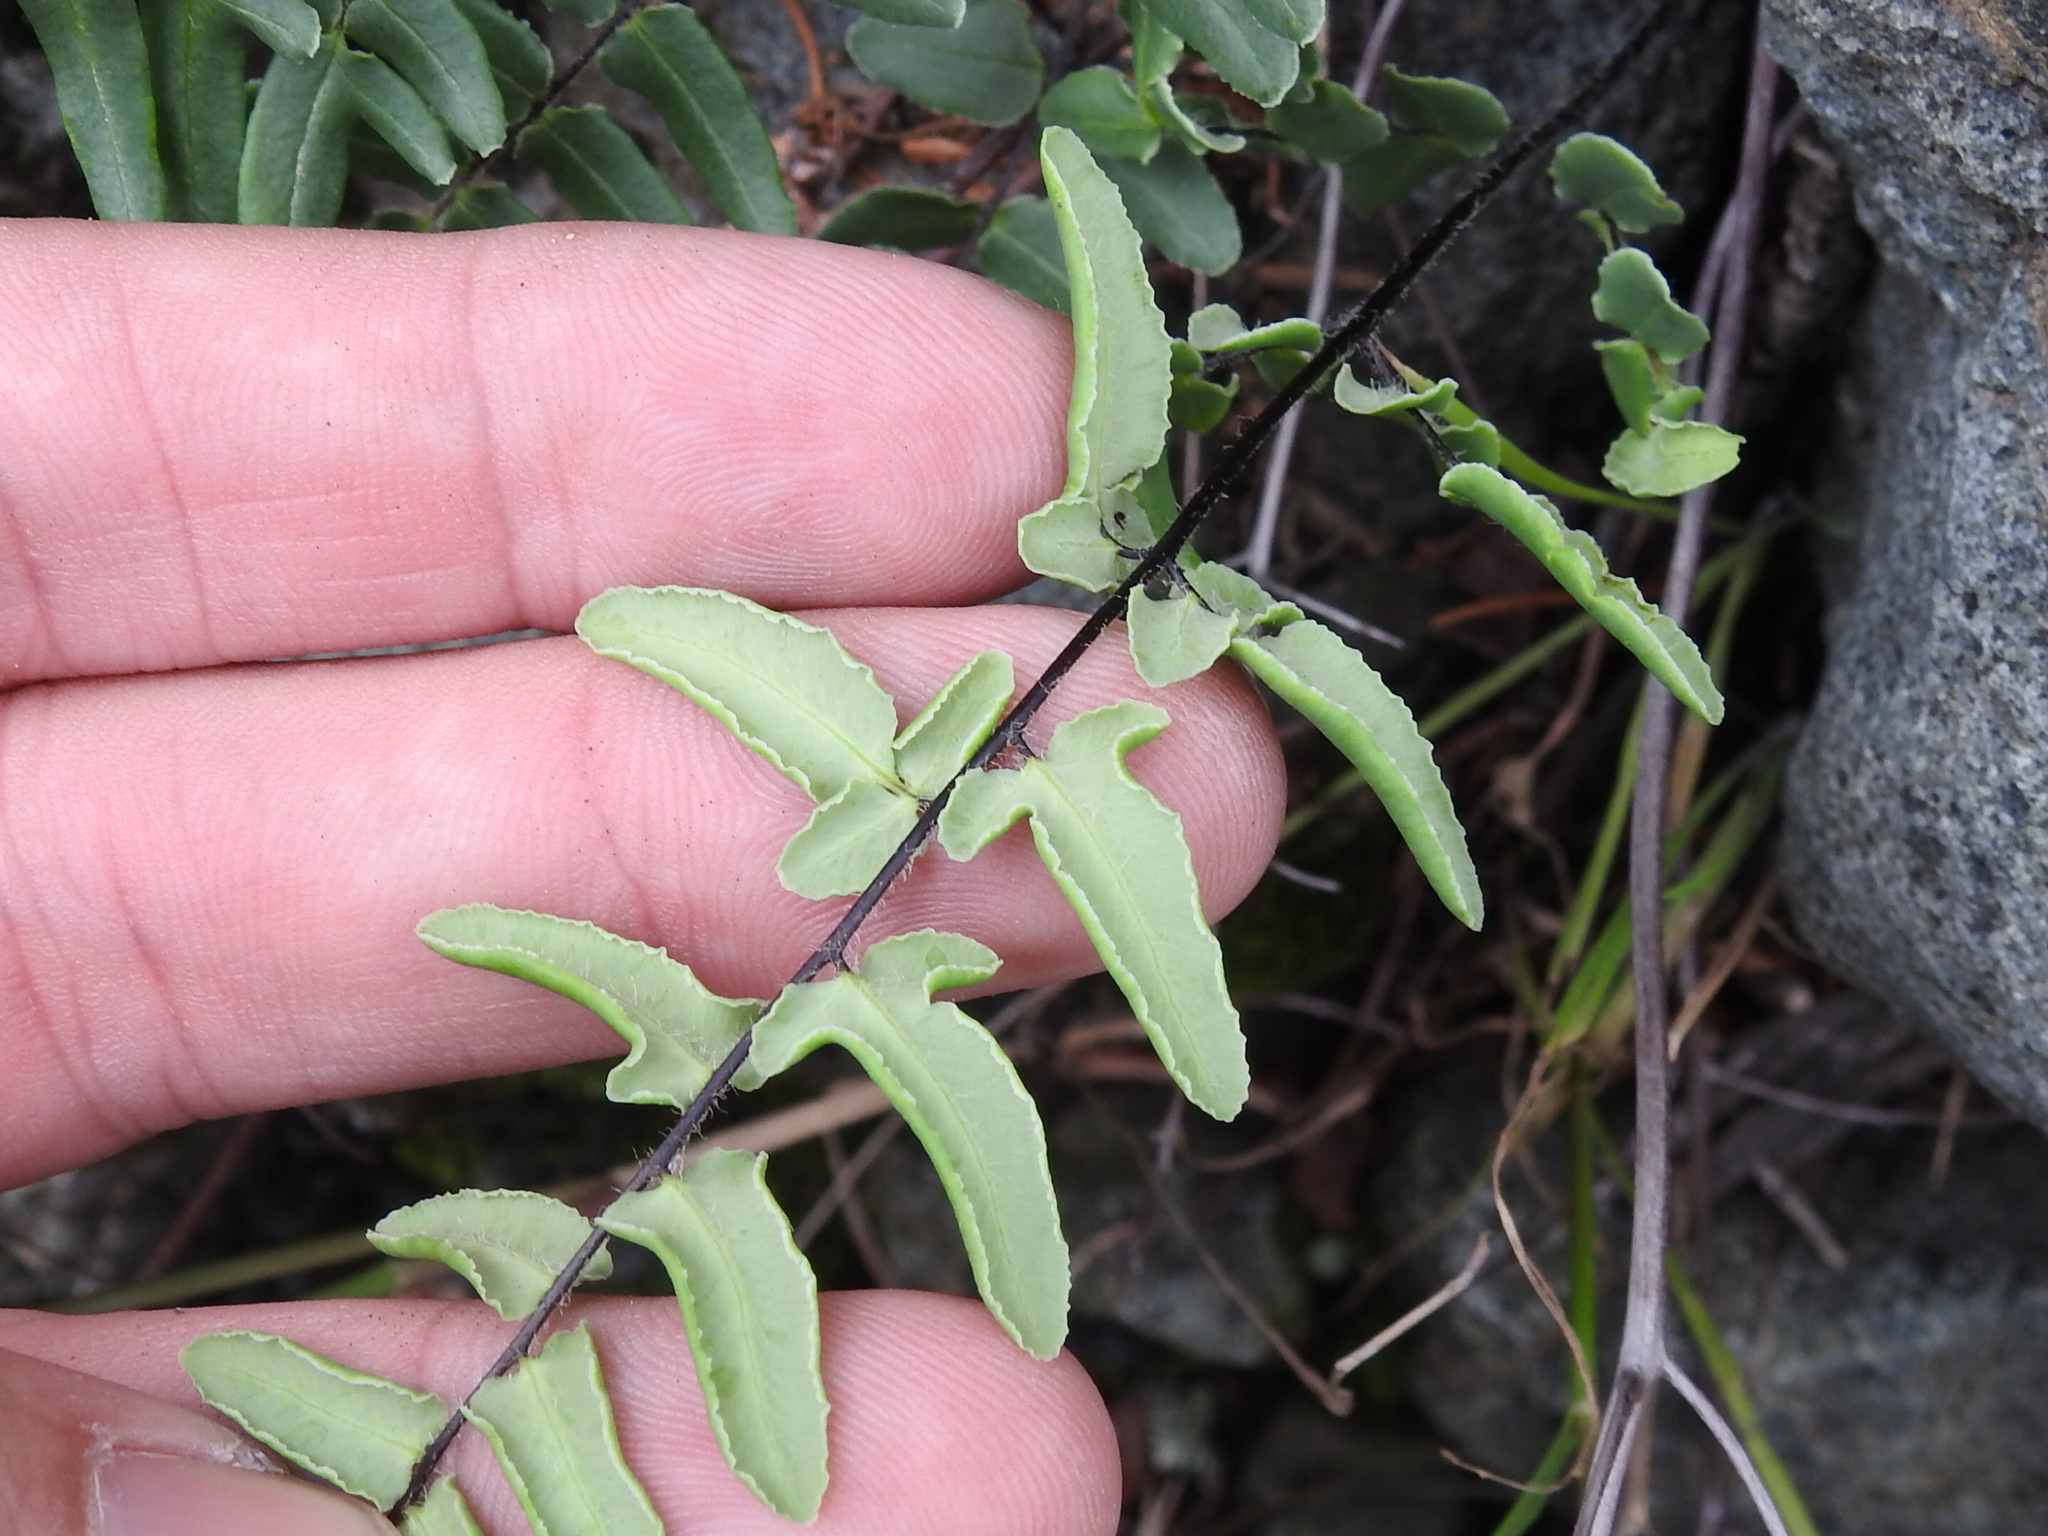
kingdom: Plantae
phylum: Tracheophyta
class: Polypodiopsida
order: Polypodiales
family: Pteridaceae
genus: Pellaea
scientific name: Pellaea atropurpurea
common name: Hairy cliffbrake
